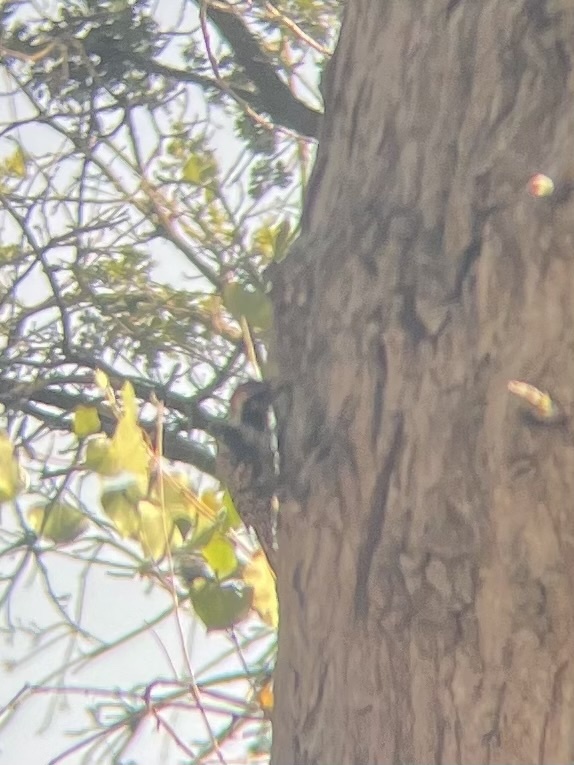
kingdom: Animalia
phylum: Chordata
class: Aves
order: Piciformes
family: Picidae
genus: Dryobates
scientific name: Dryobates nuttallii
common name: Nuttall's woodpecker
